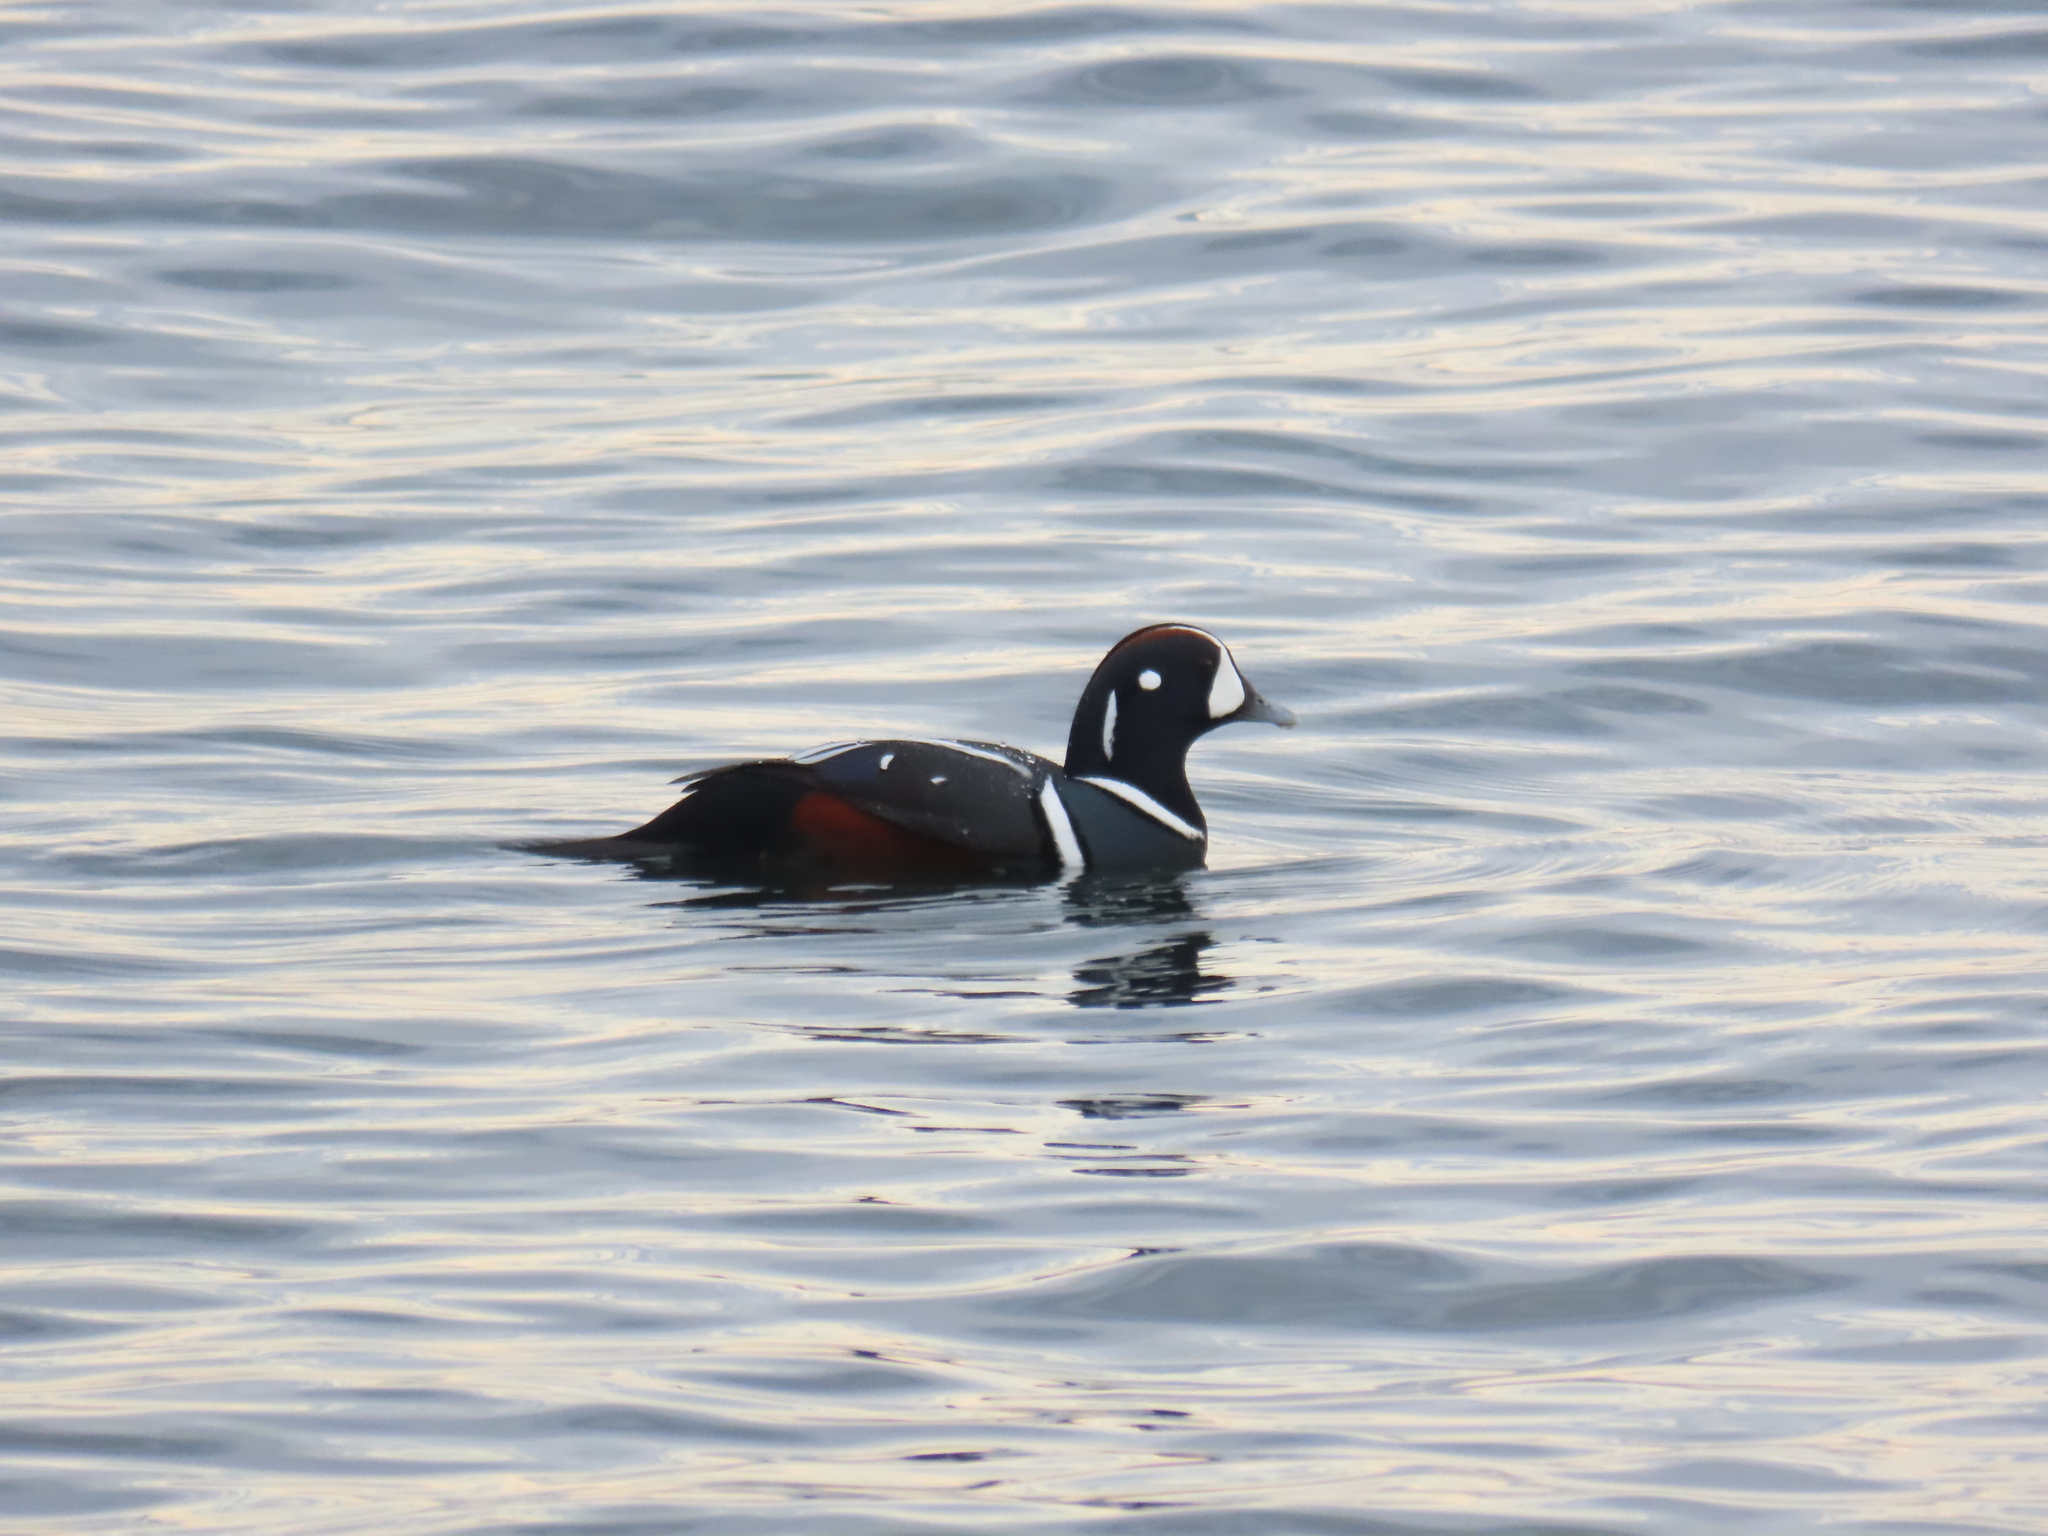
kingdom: Animalia
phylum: Chordata
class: Aves
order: Anseriformes
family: Anatidae
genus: Histrionicus
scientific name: Histrionicus histrionicus
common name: Harlequin duck
